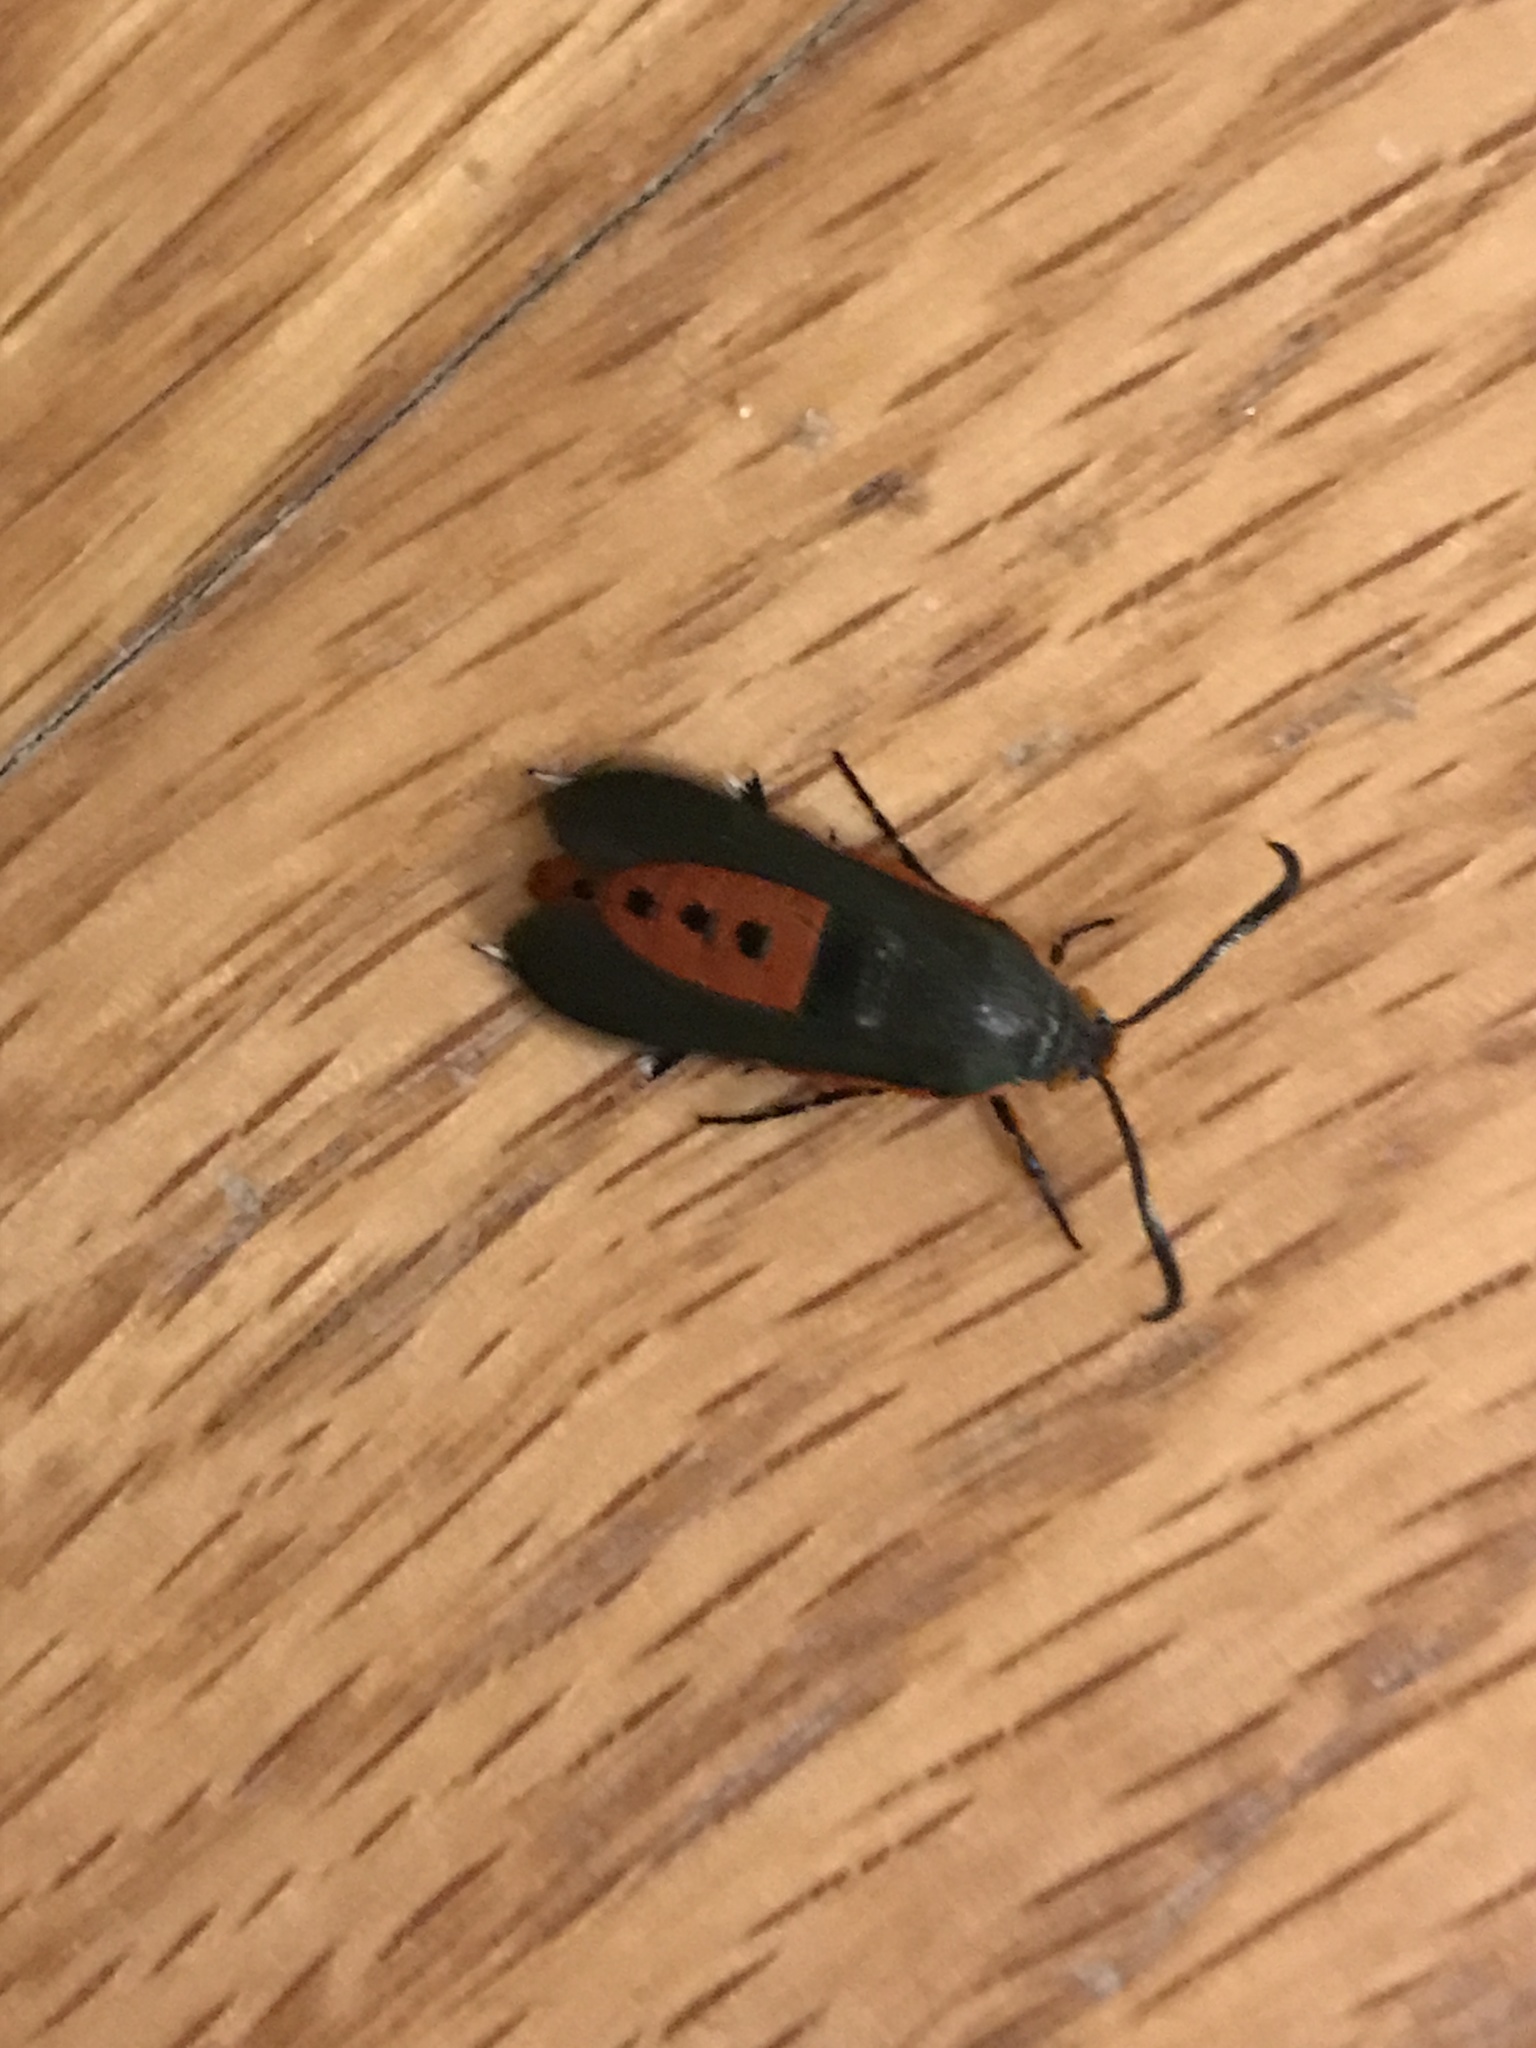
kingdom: Animalia
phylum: Arthropoda
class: Insecta
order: Lepidoptera
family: Sesiidae
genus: Eichlinia
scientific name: Eichlinia cucurbitae
